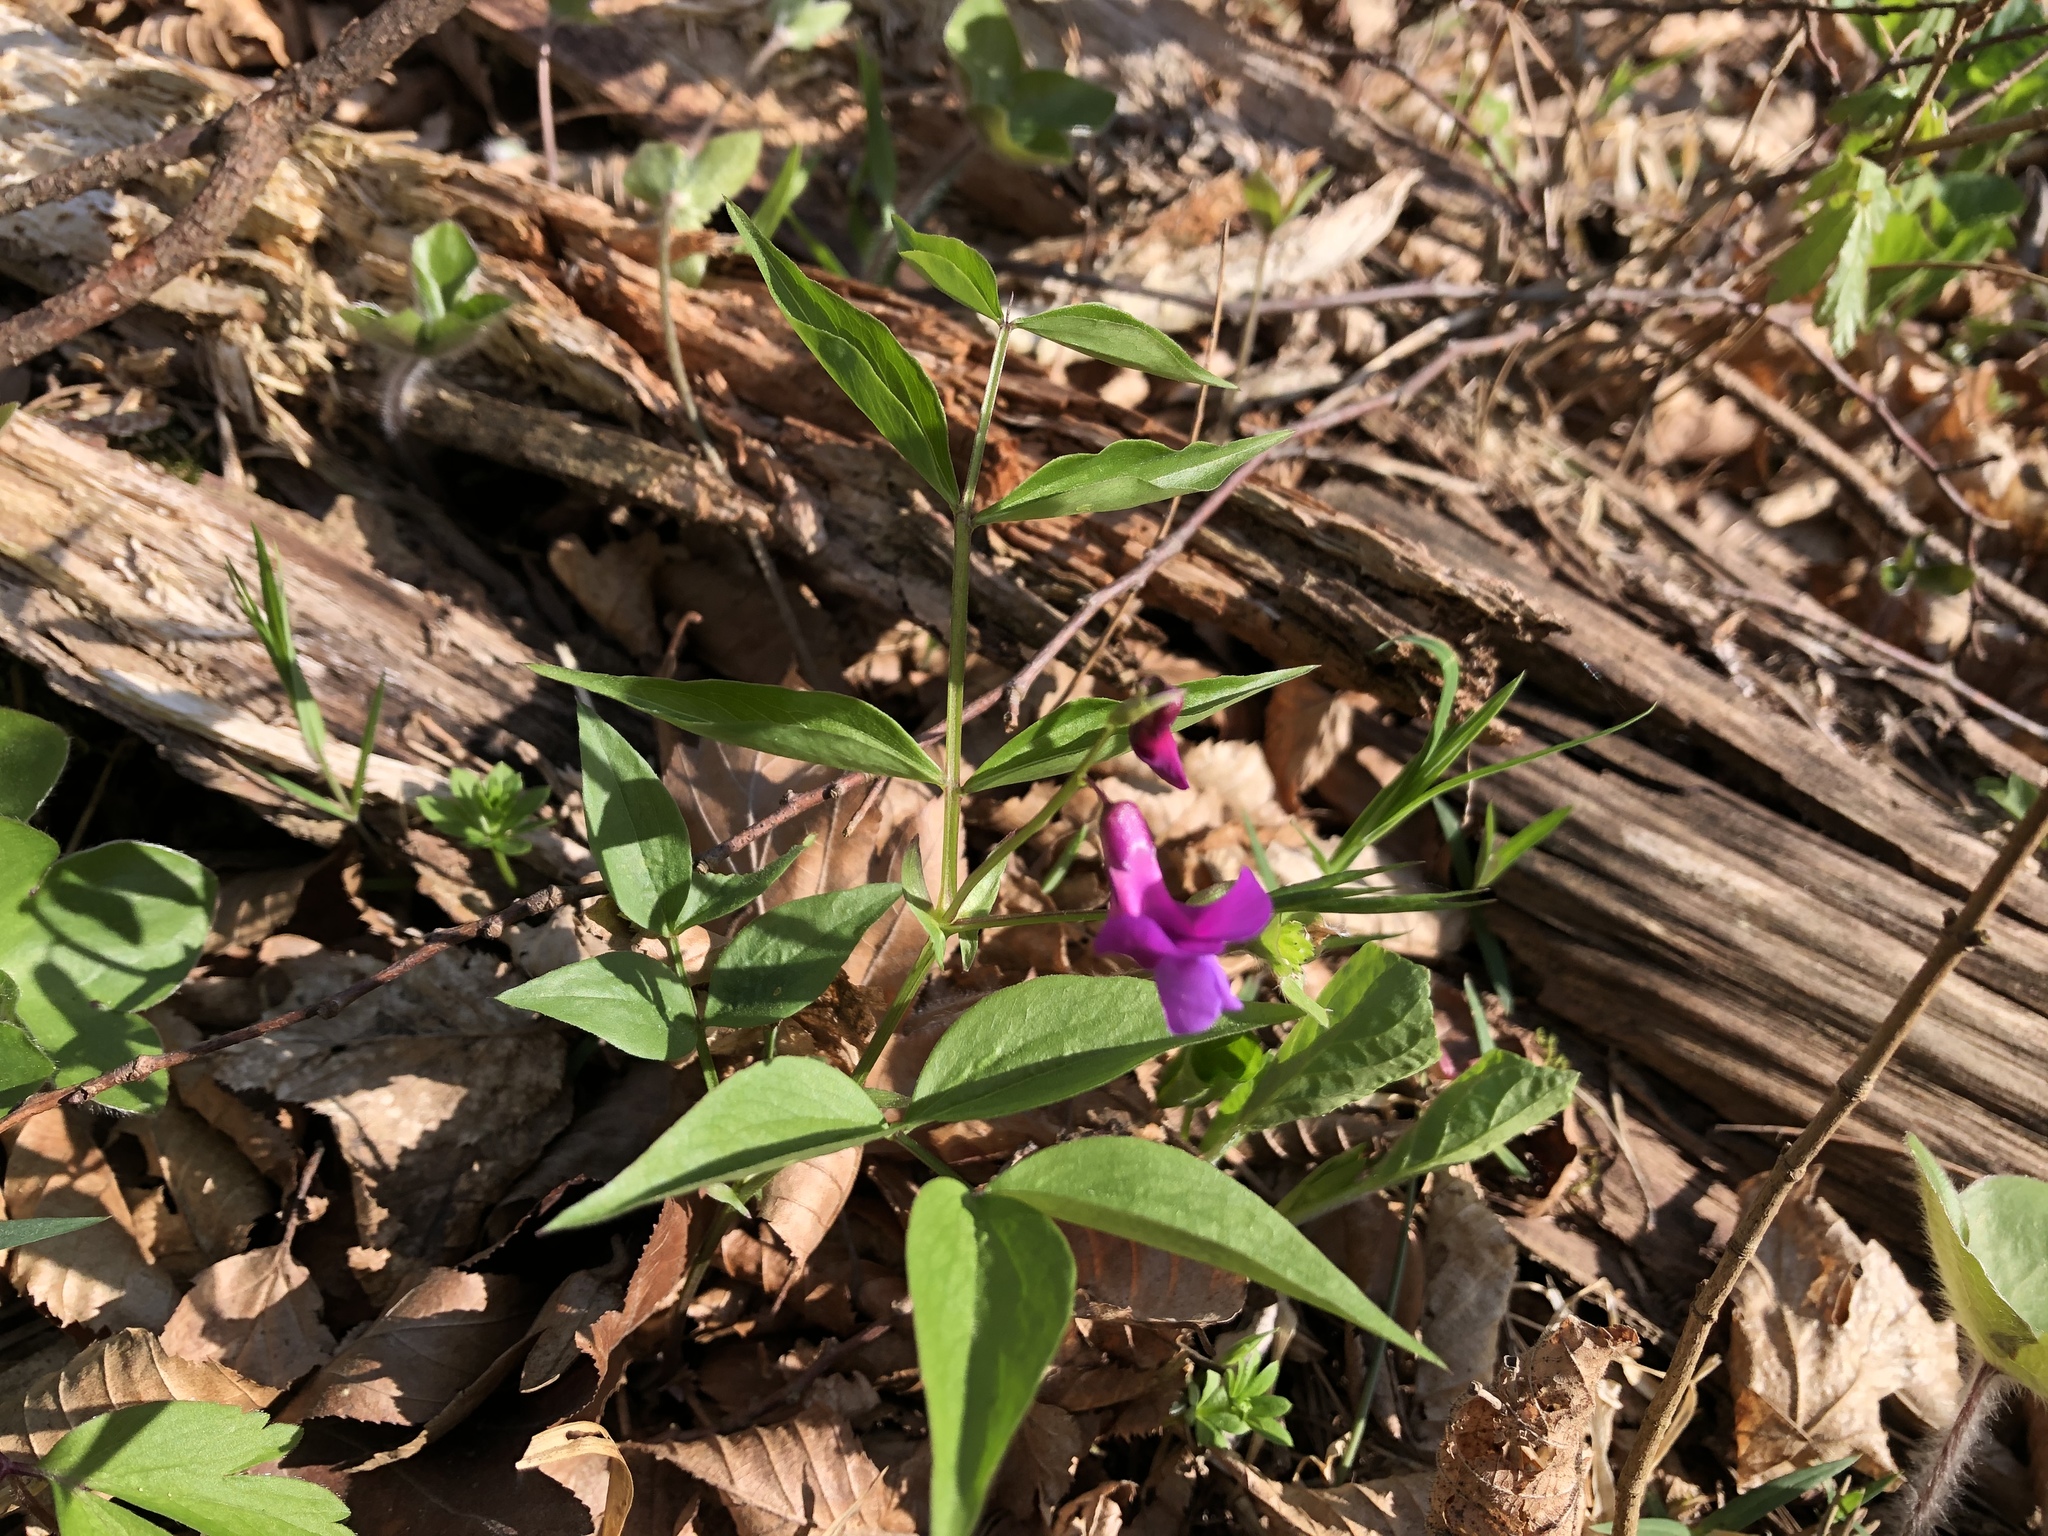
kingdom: Plantae
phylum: Tracheophyta
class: Magnoliopsida
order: Fabales
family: Fabaceae
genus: Lathyrus
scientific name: Lathyrus vernus
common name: Spring pea
